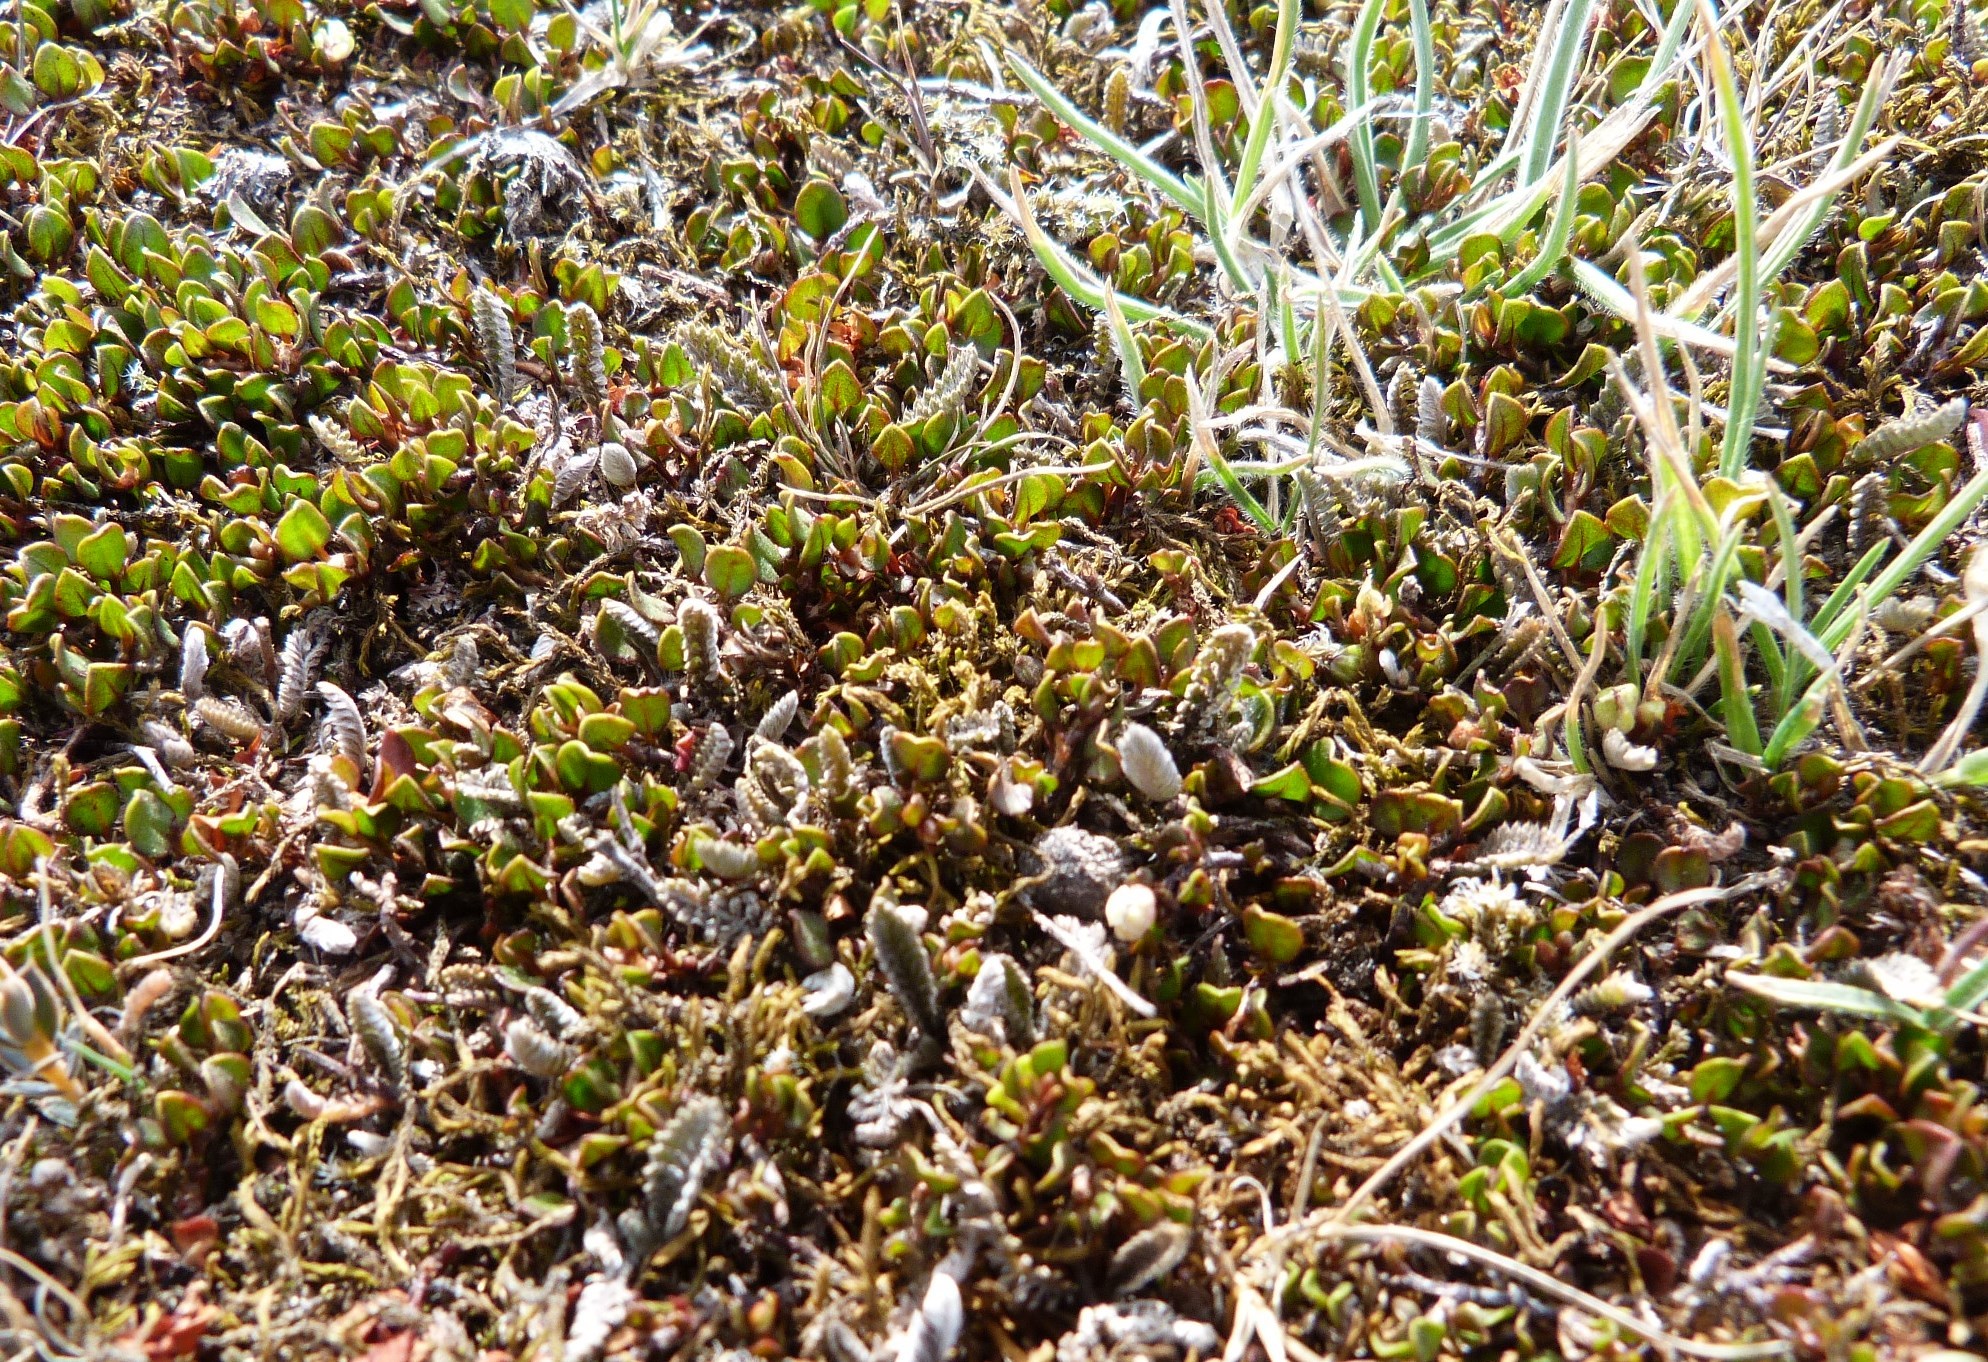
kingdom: Plantae
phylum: Tracheophyta
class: Magnoliopsida
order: Asterales
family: Asteraceae
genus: Leptinella
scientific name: Leptinella serrulata
